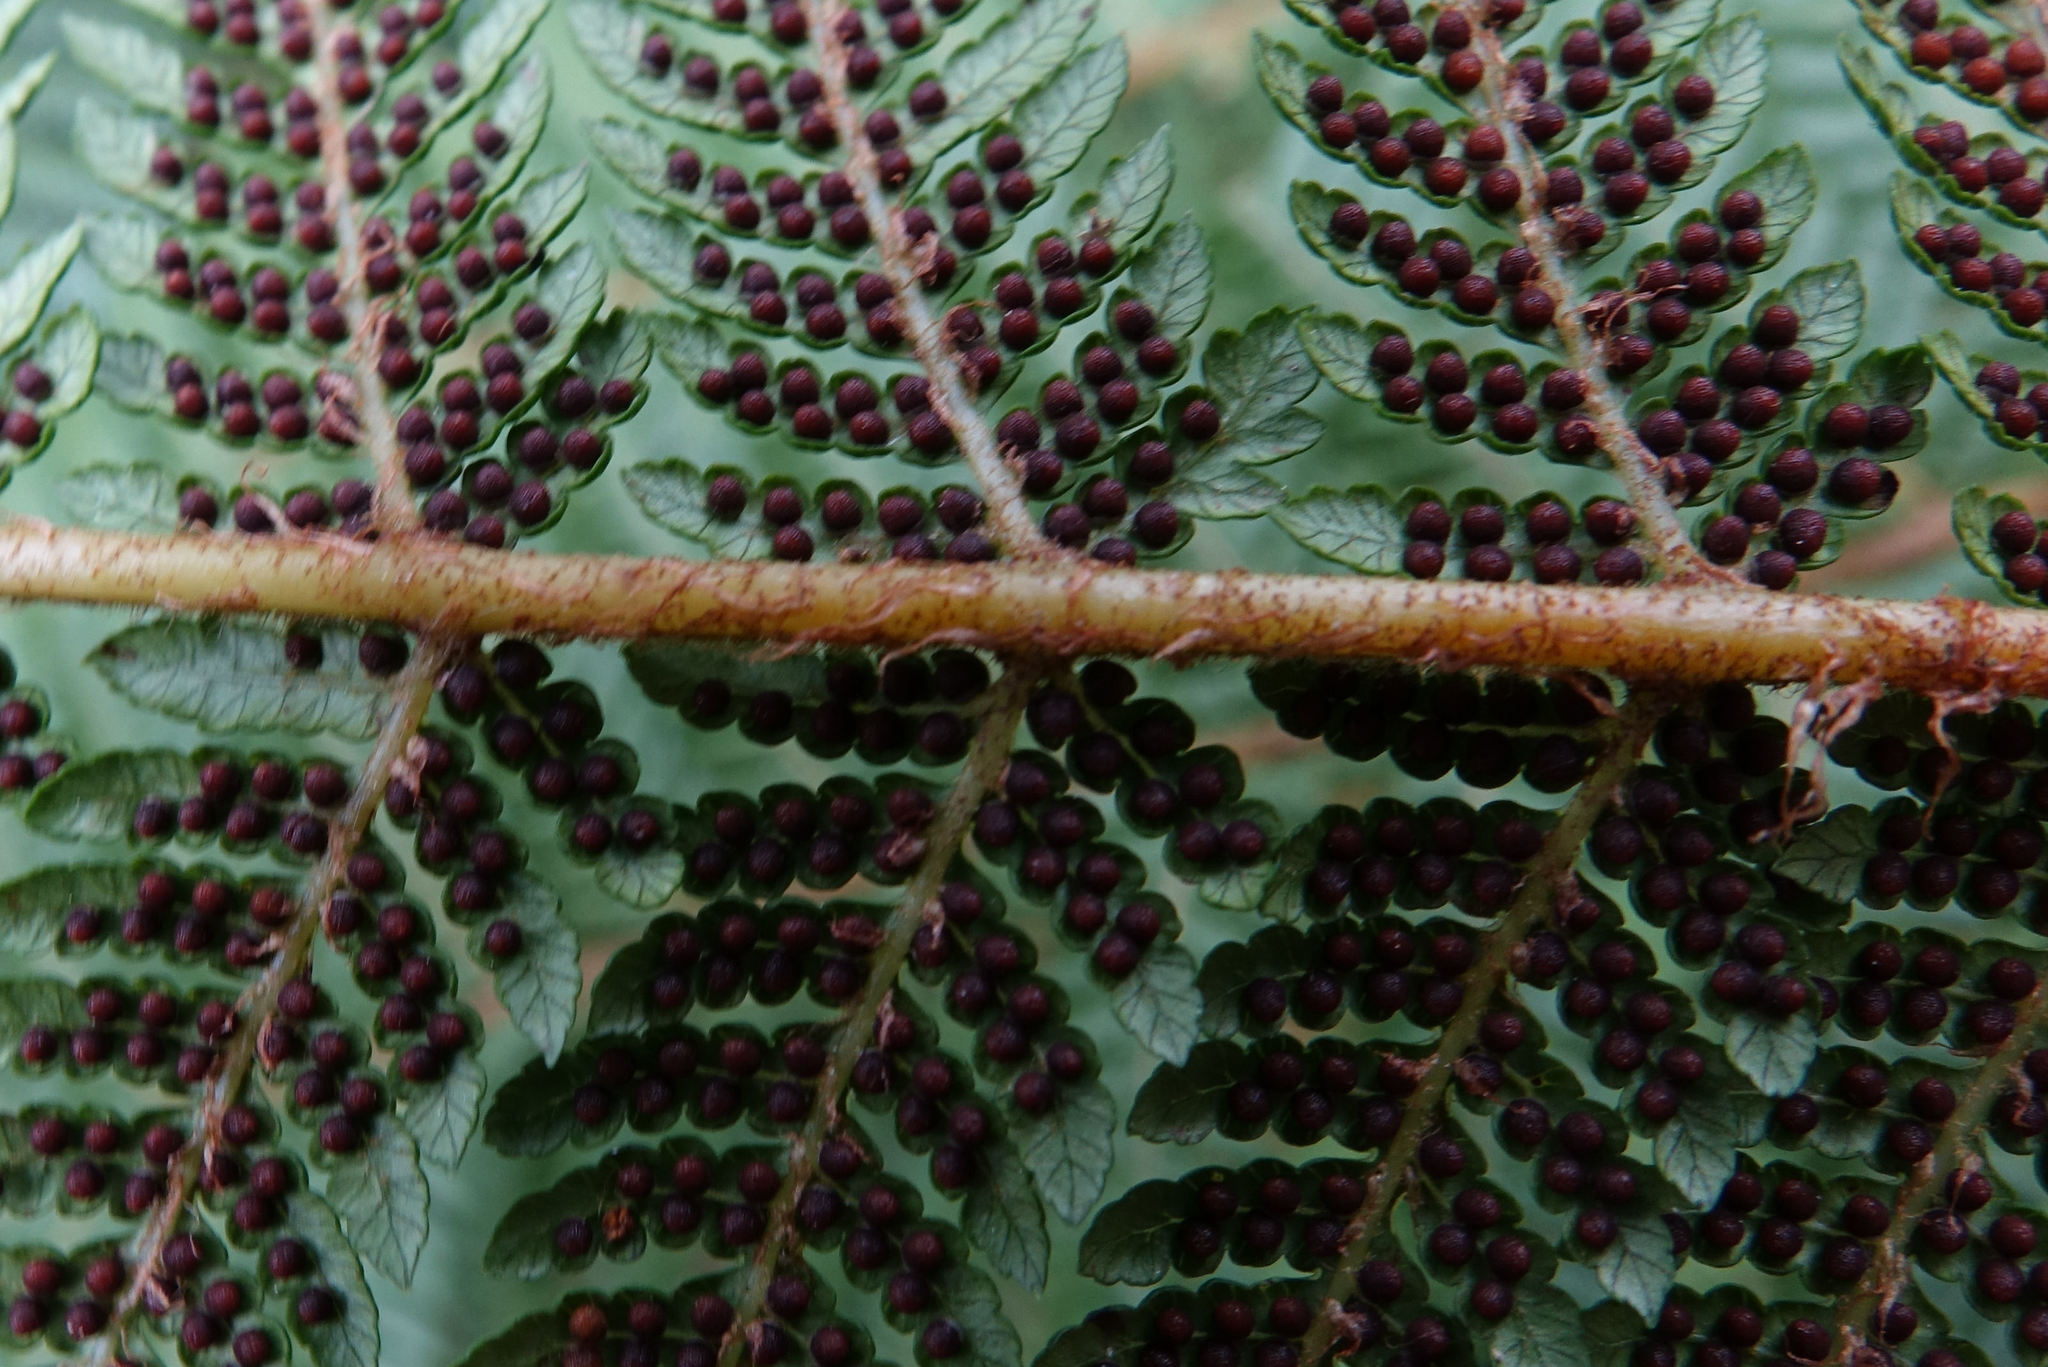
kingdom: Plantae
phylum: Tracheophyta
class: Polypodiopsida
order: Cyatheales
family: Cyatheaceae
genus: Alsophila
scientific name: Alsophila smithii
